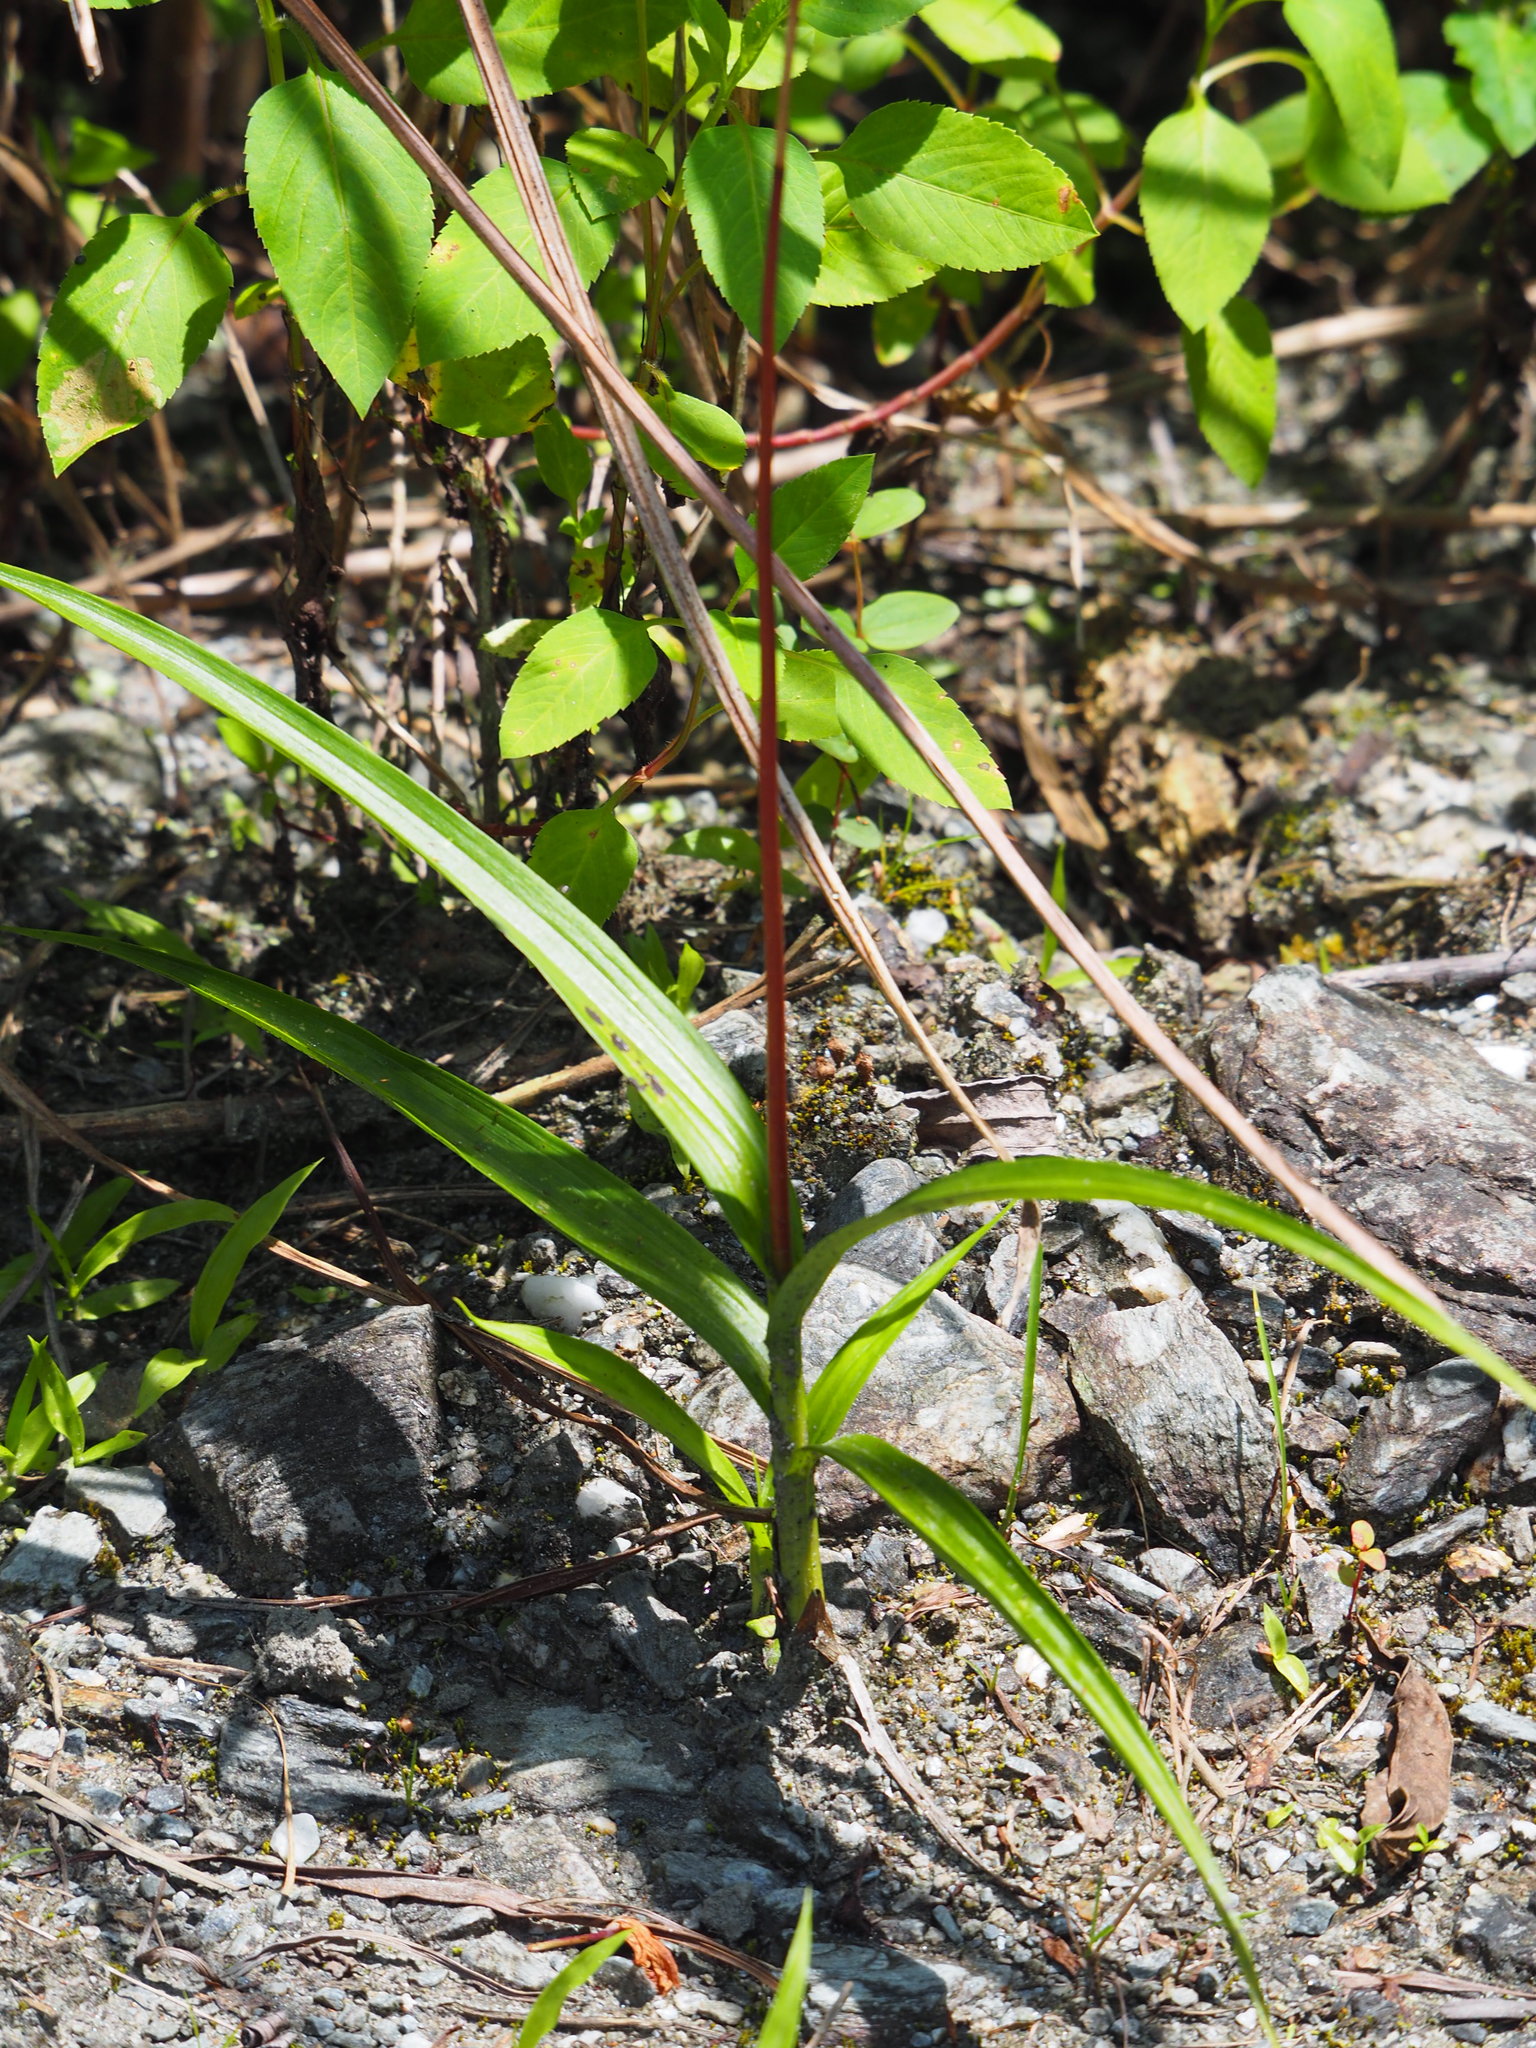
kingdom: Plantae
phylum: Tracheophyta
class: Liliopsida
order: Asparagales
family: Orchidaceae
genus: Bletilla
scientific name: Bletilla formosana
